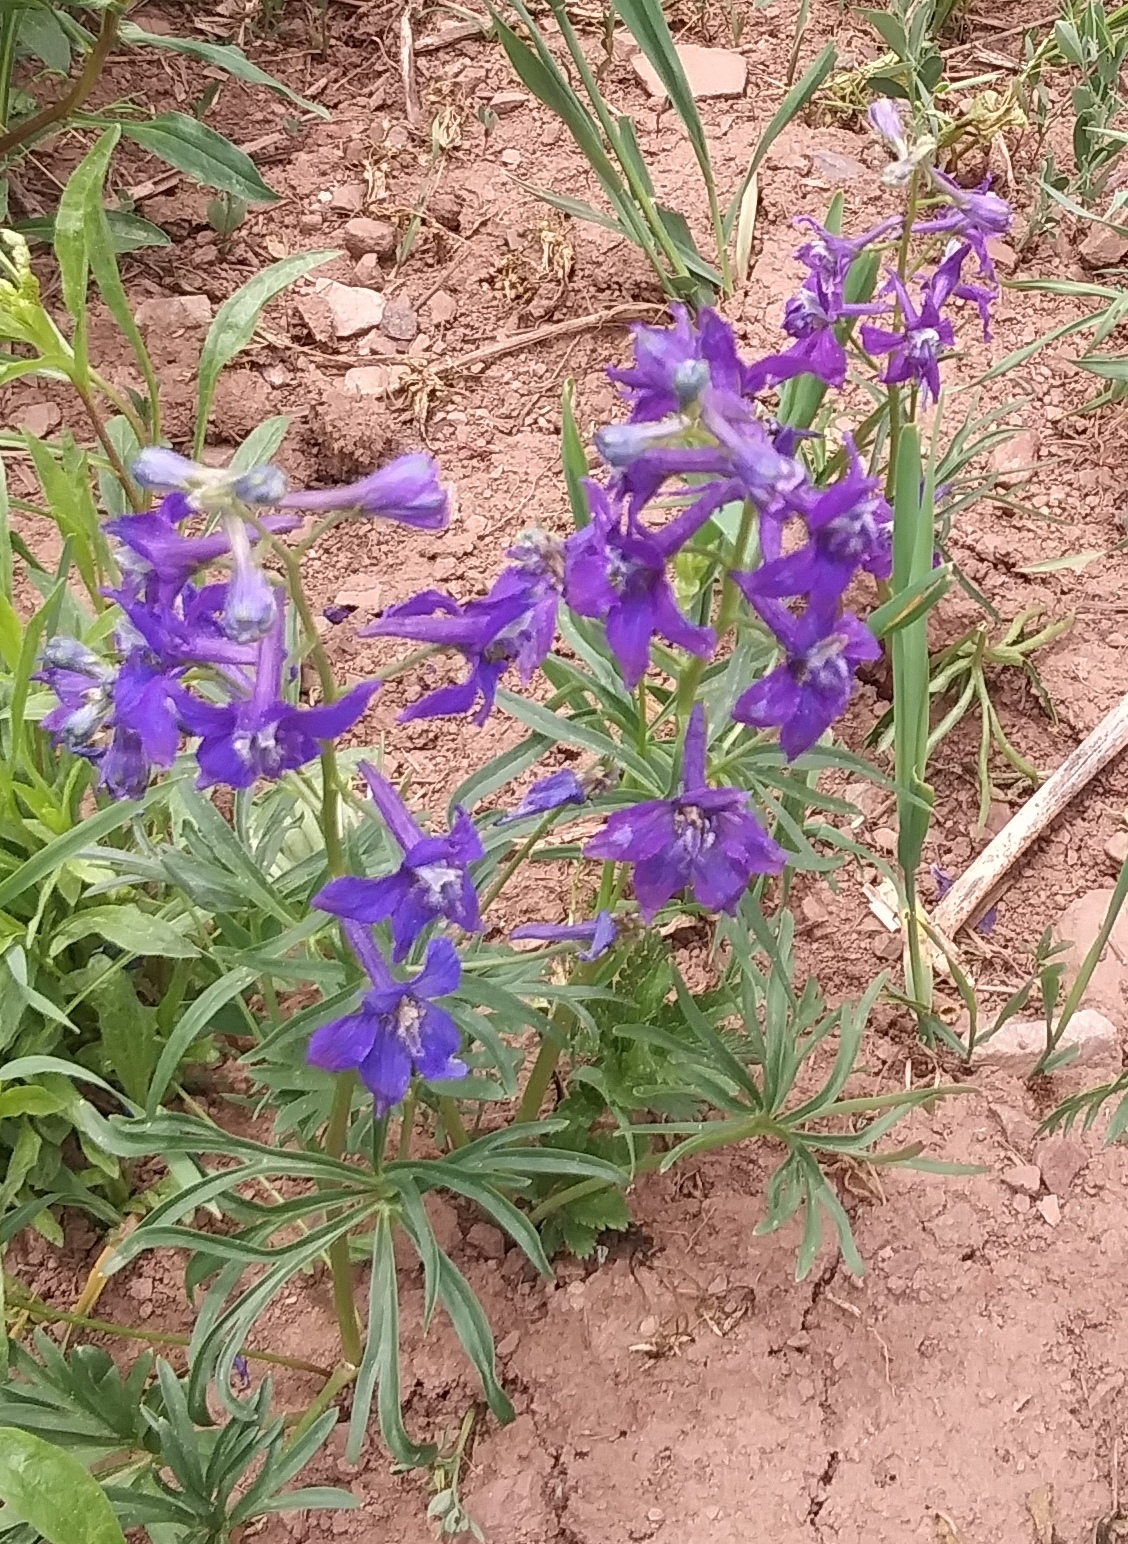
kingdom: Plantae
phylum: Tracheophyta
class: Magnoliopsida
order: Ranunculales
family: Ranunculaceae
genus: Delphinium
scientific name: Delphinium nuttallianum
